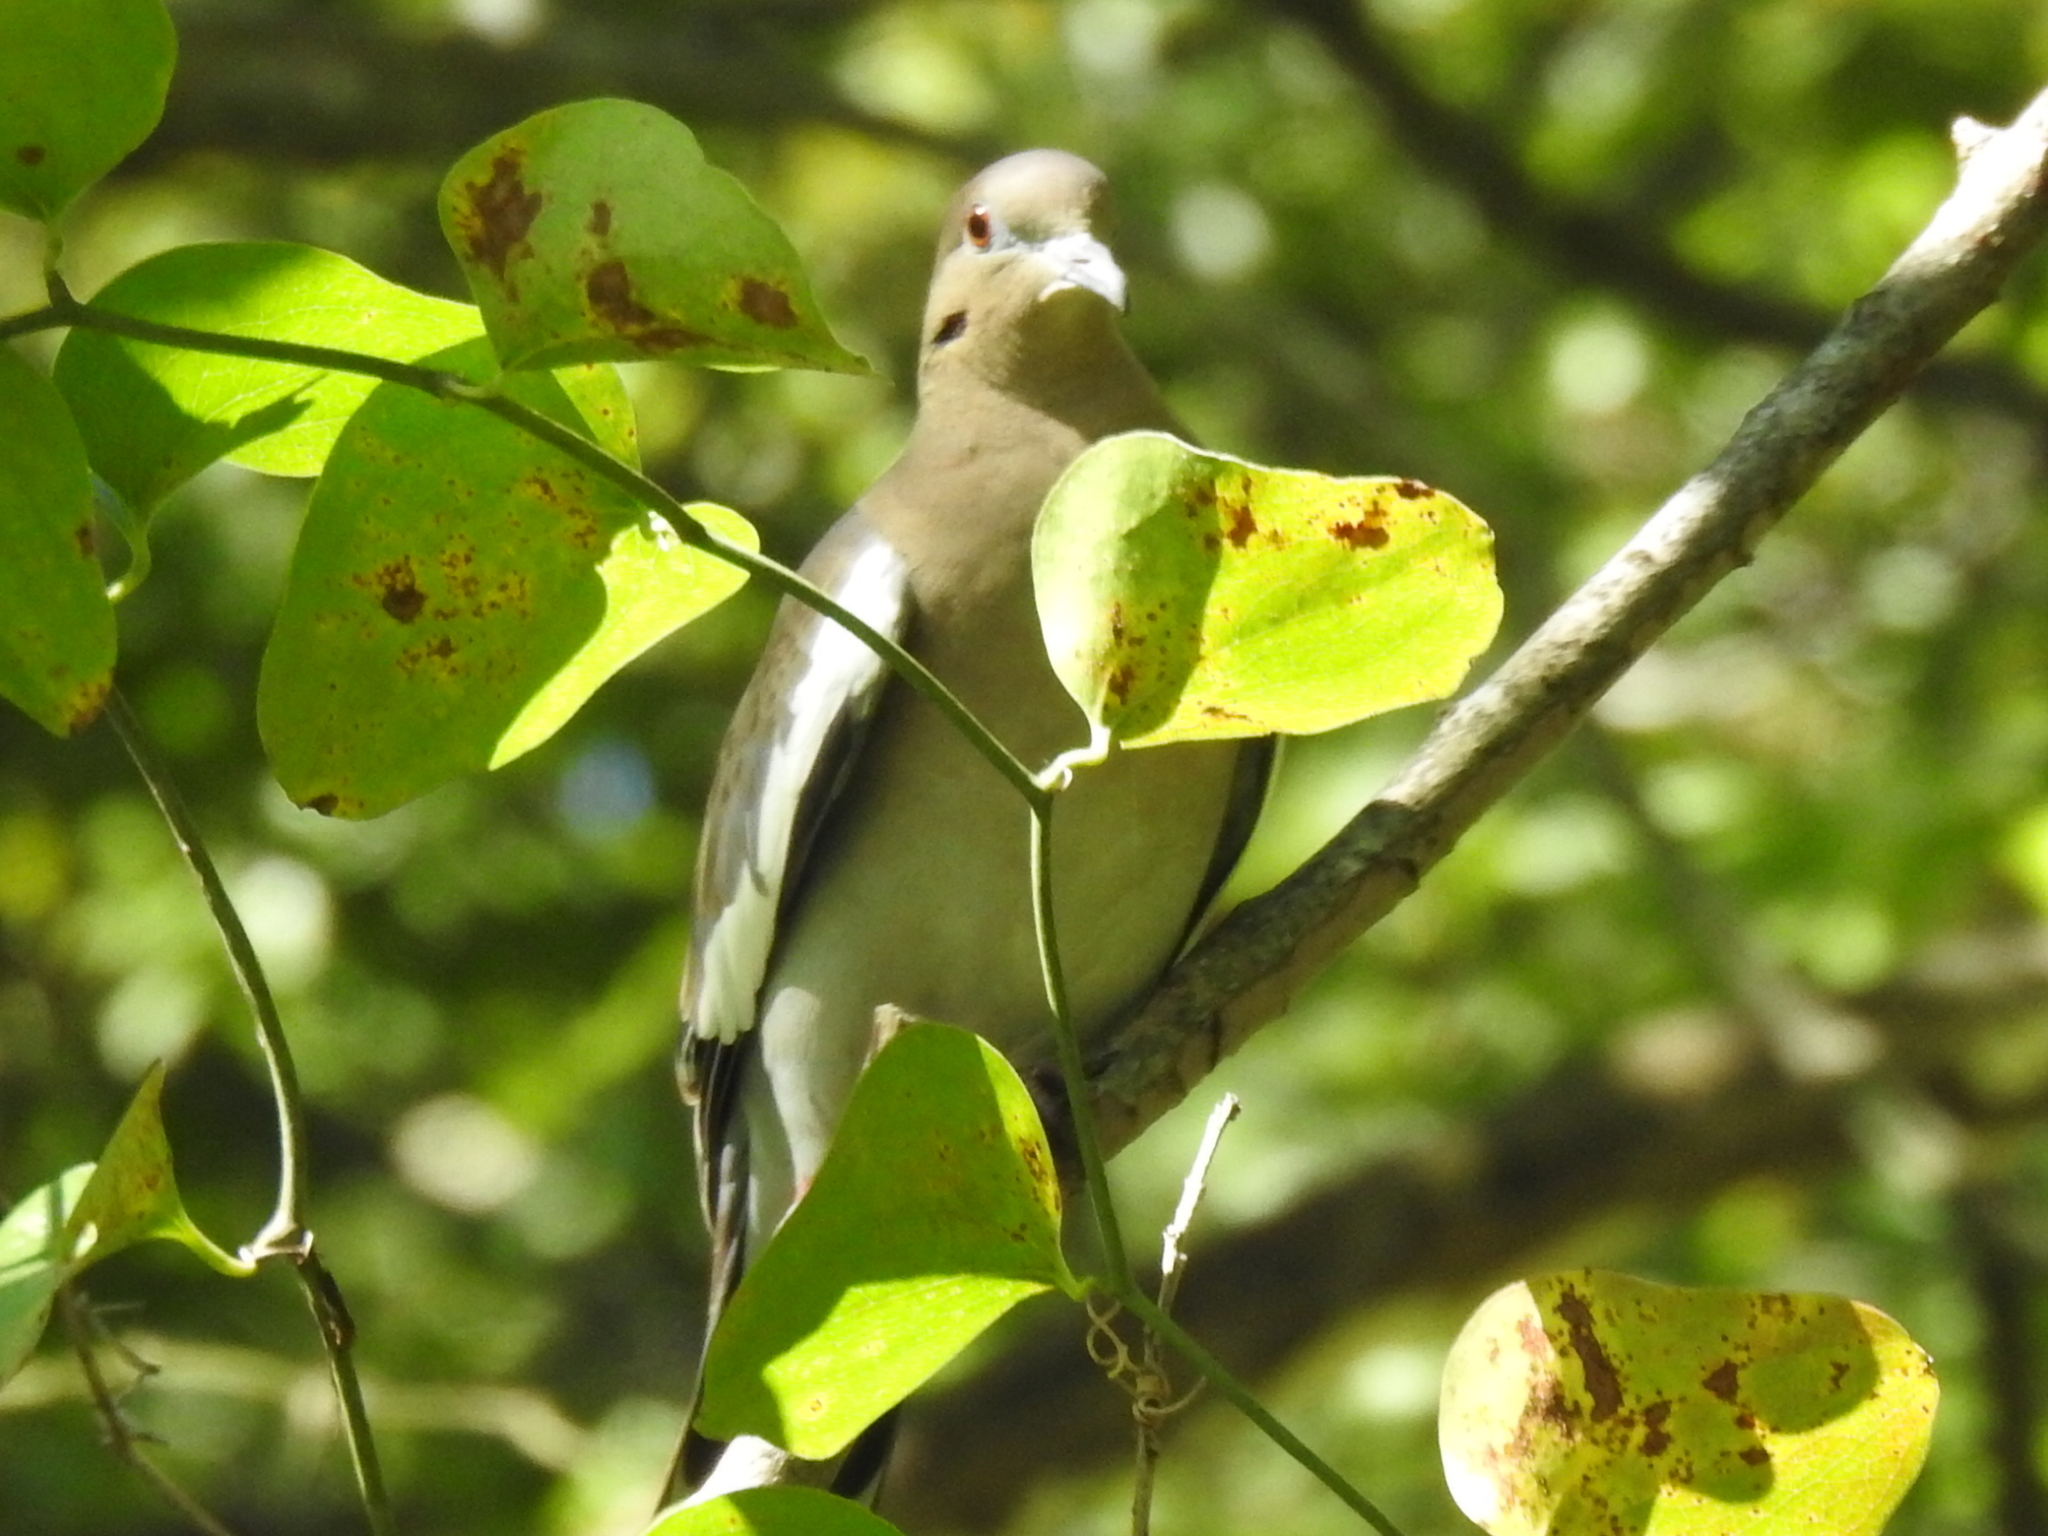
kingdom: Animalia
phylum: Chordata
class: Aves
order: Columbiformes
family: Columbidae
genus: Zenaida
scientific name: Zenaida asiatica
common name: White-winged dove
